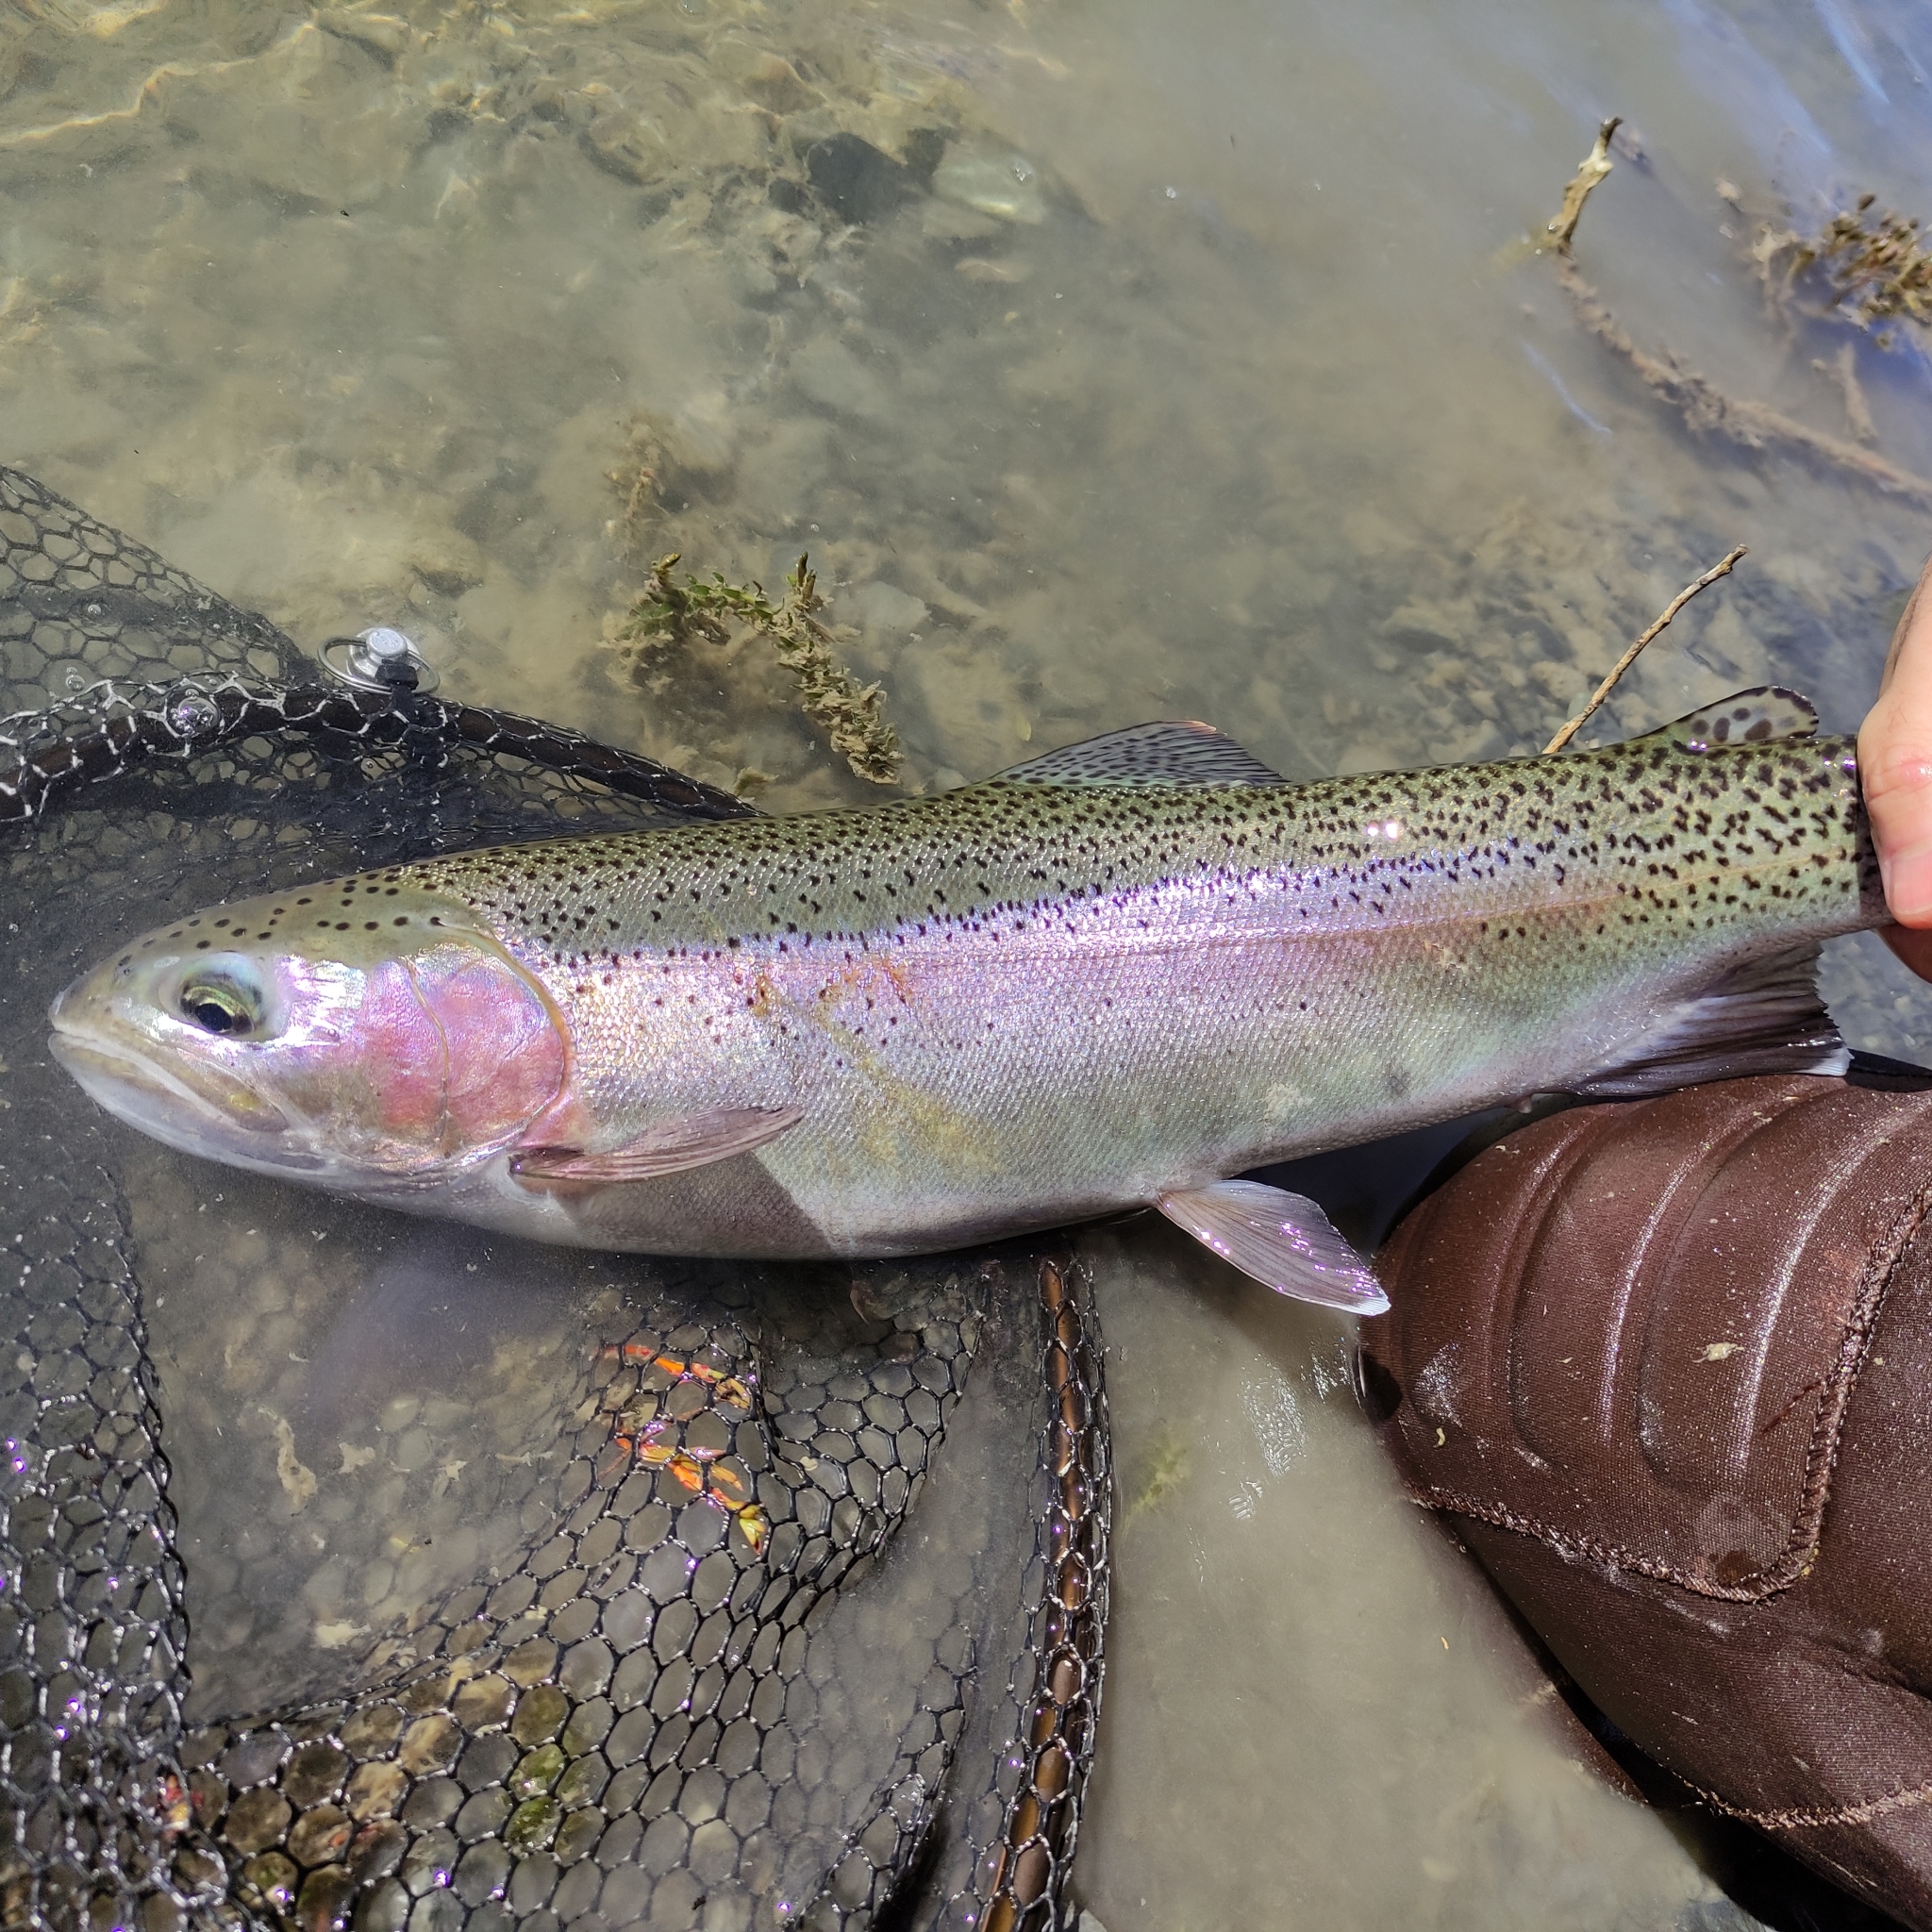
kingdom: Animalia
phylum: Chordata
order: Salmoniformes
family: Salmonidae
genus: Oncorhynchus
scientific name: Oncorhynchus mykiss
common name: Rainbow trout
